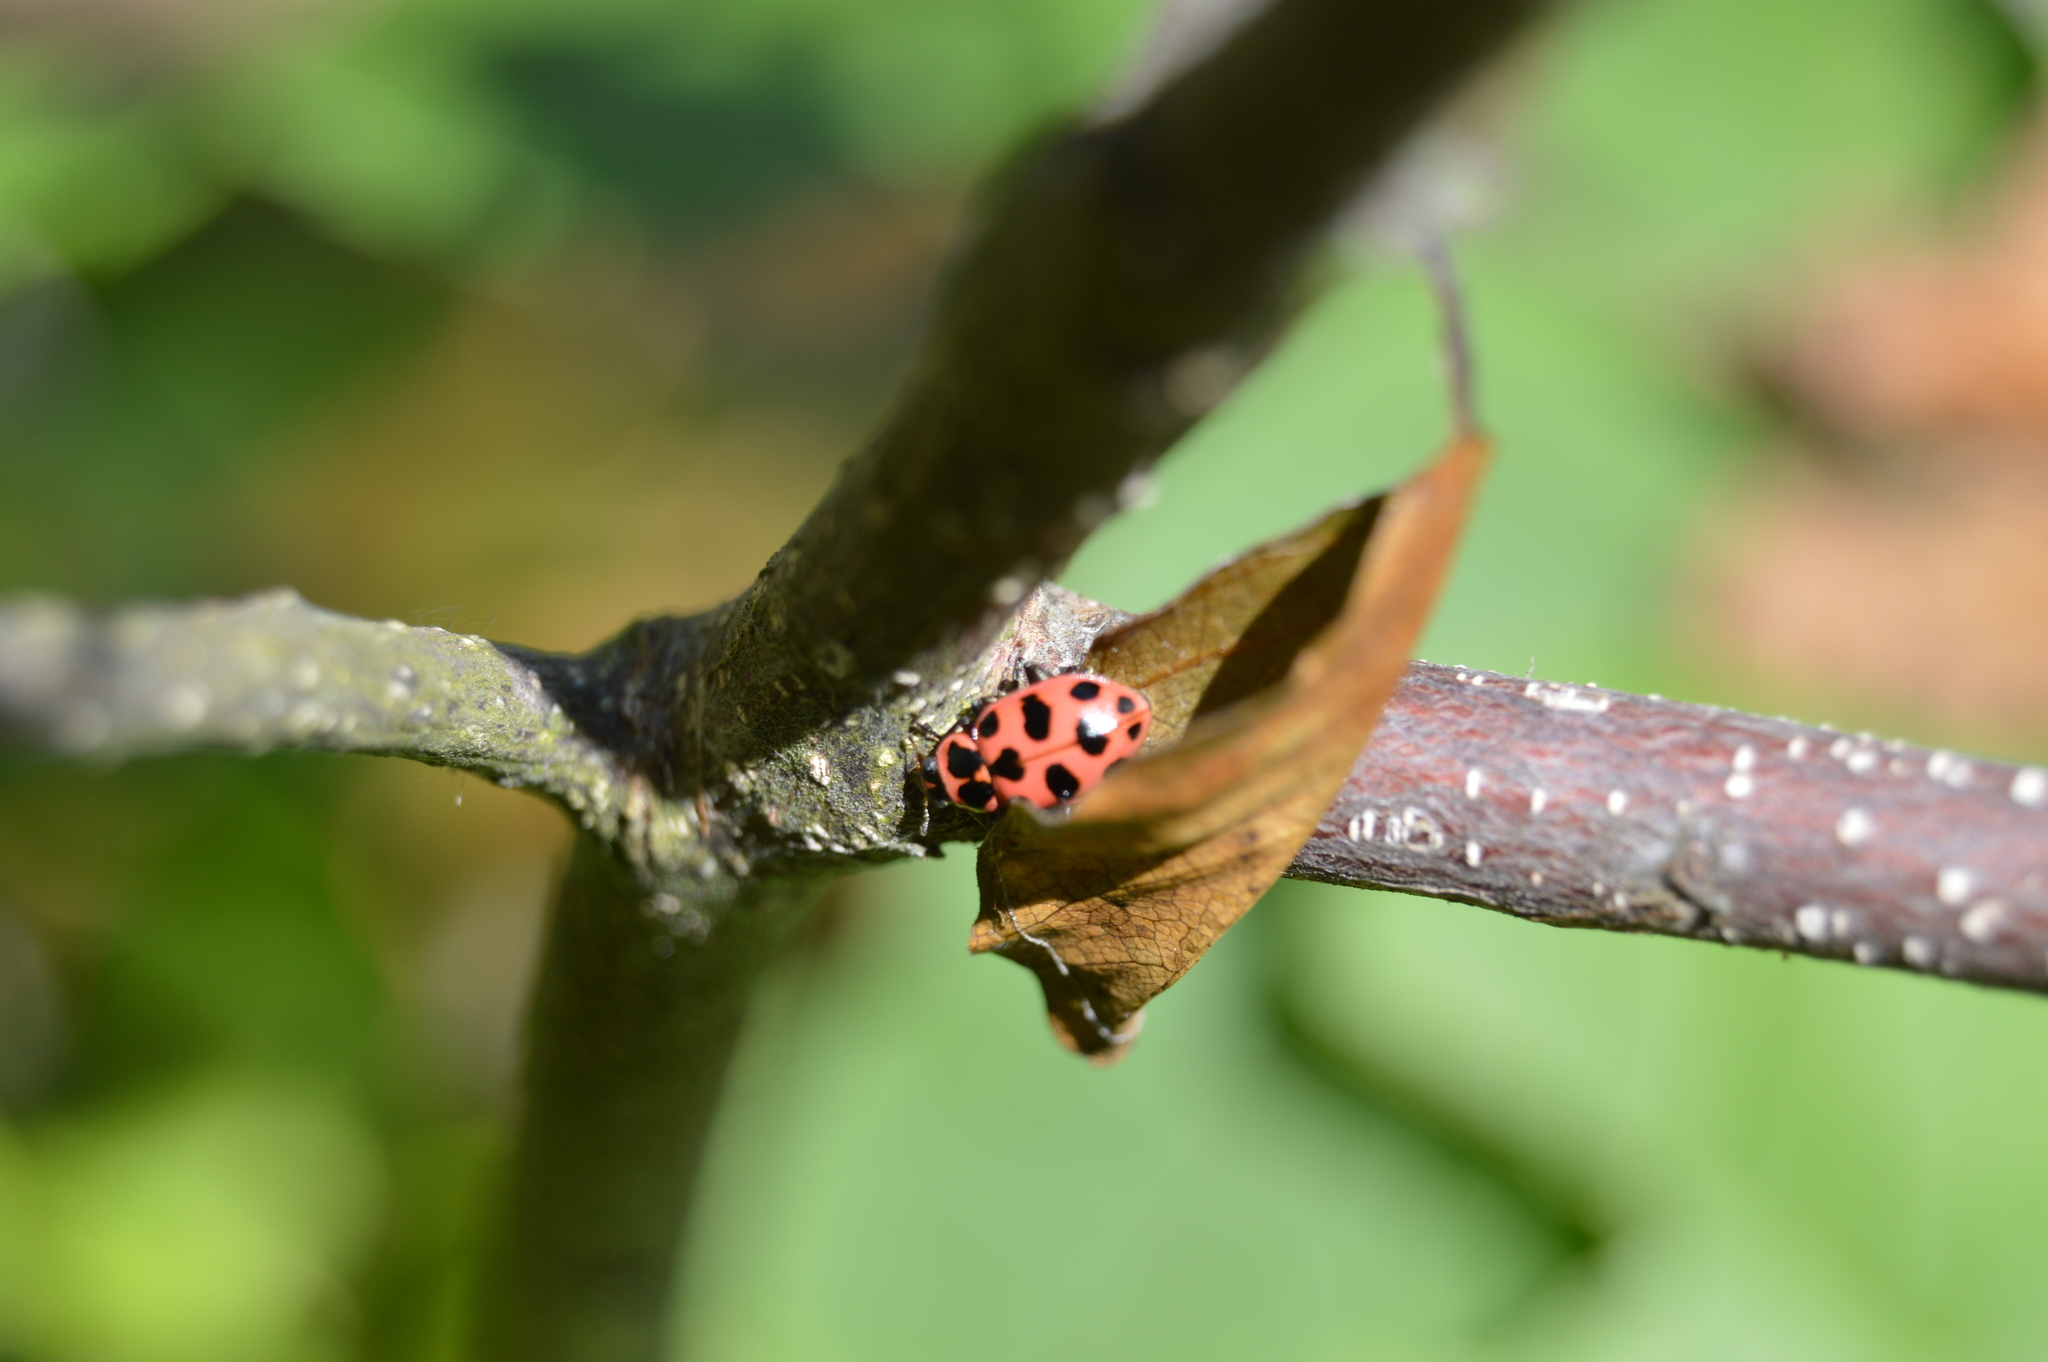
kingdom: Animalia
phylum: Arthropoda
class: Insecta
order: Coleoptera
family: Coccinellidae
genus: Coleomegilla
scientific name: Coleomegilla maculata
